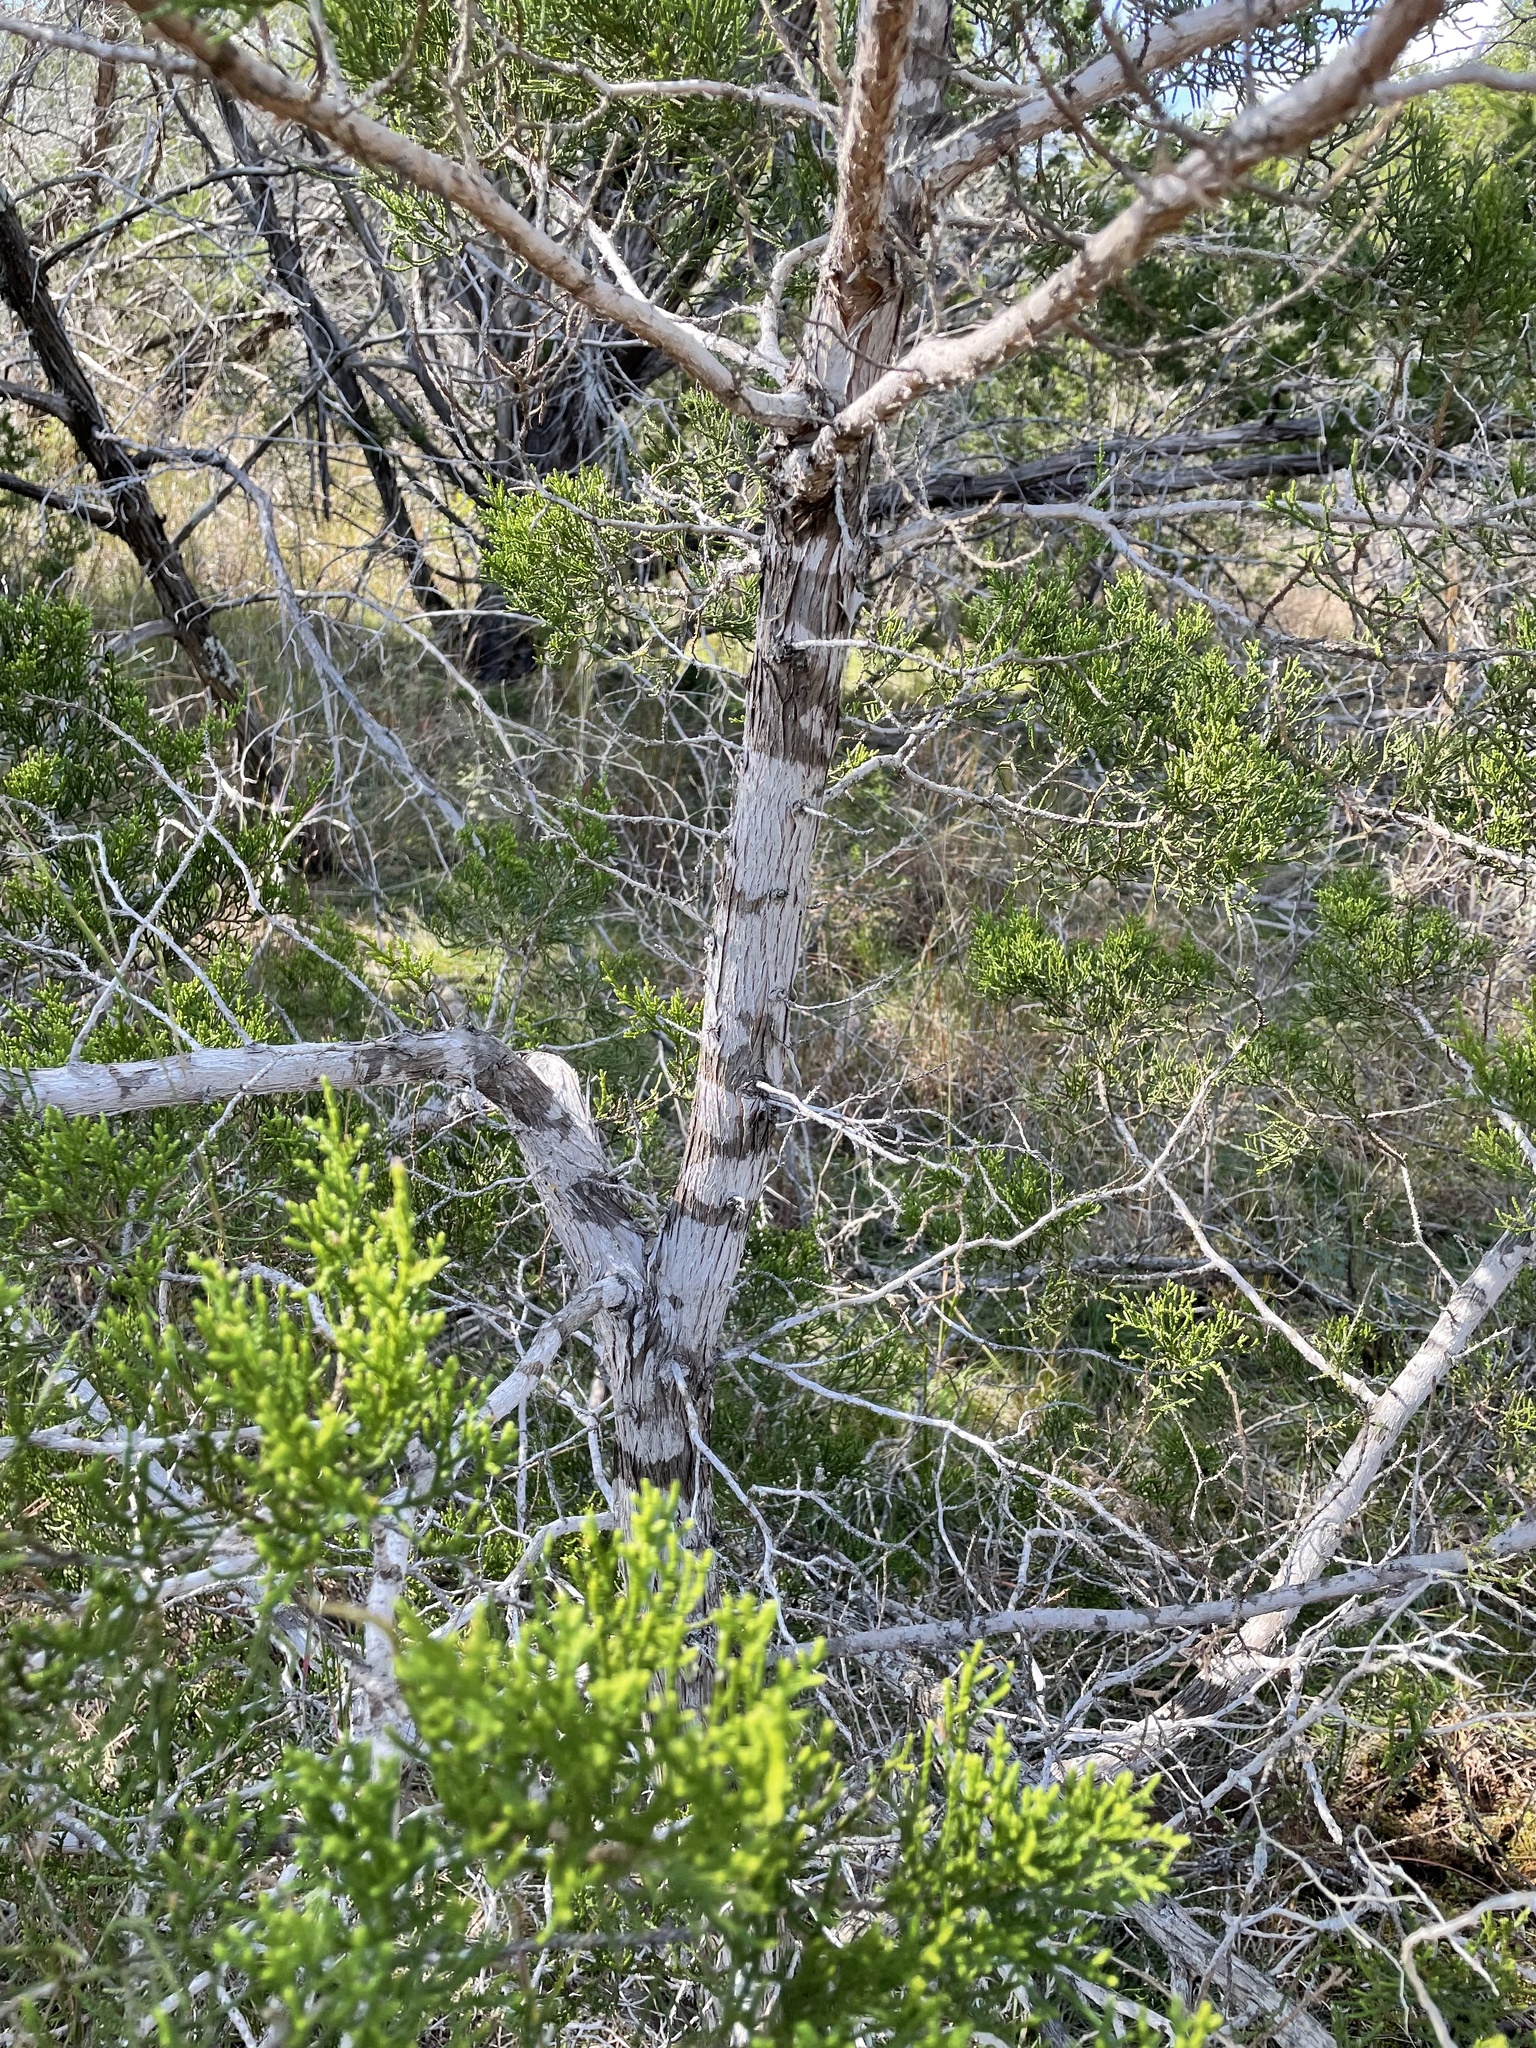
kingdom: Fungi
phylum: Ascomycota
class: Lecanoromycetes
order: Ostropales
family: Stictidaceae
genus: Robergea
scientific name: Robergea
